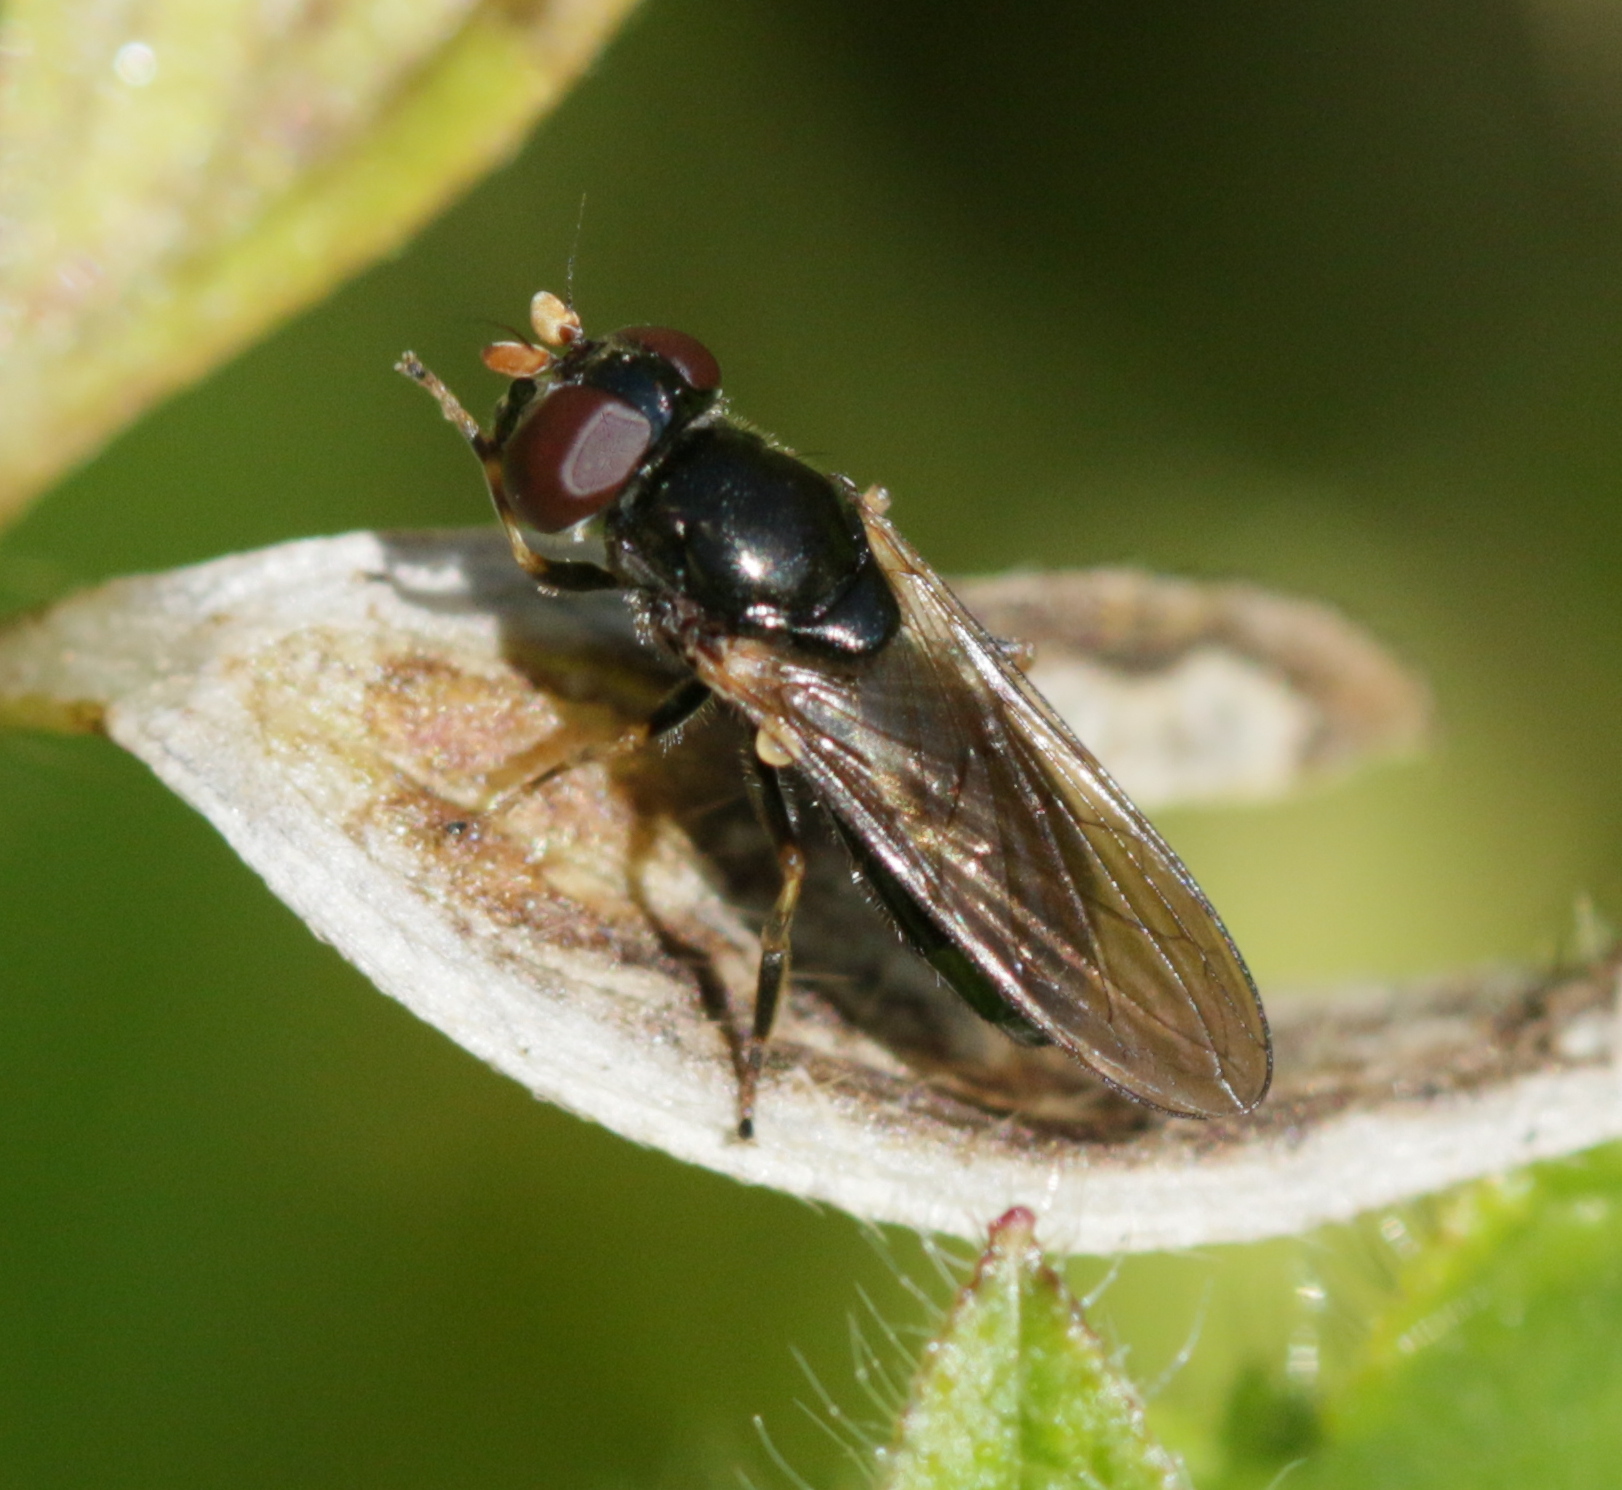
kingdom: Animalia
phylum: Arthropoda
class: Insecta
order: Diptera
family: Syrphidae
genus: Cheilosia
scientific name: Cheilosia pagana
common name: Hover fly
